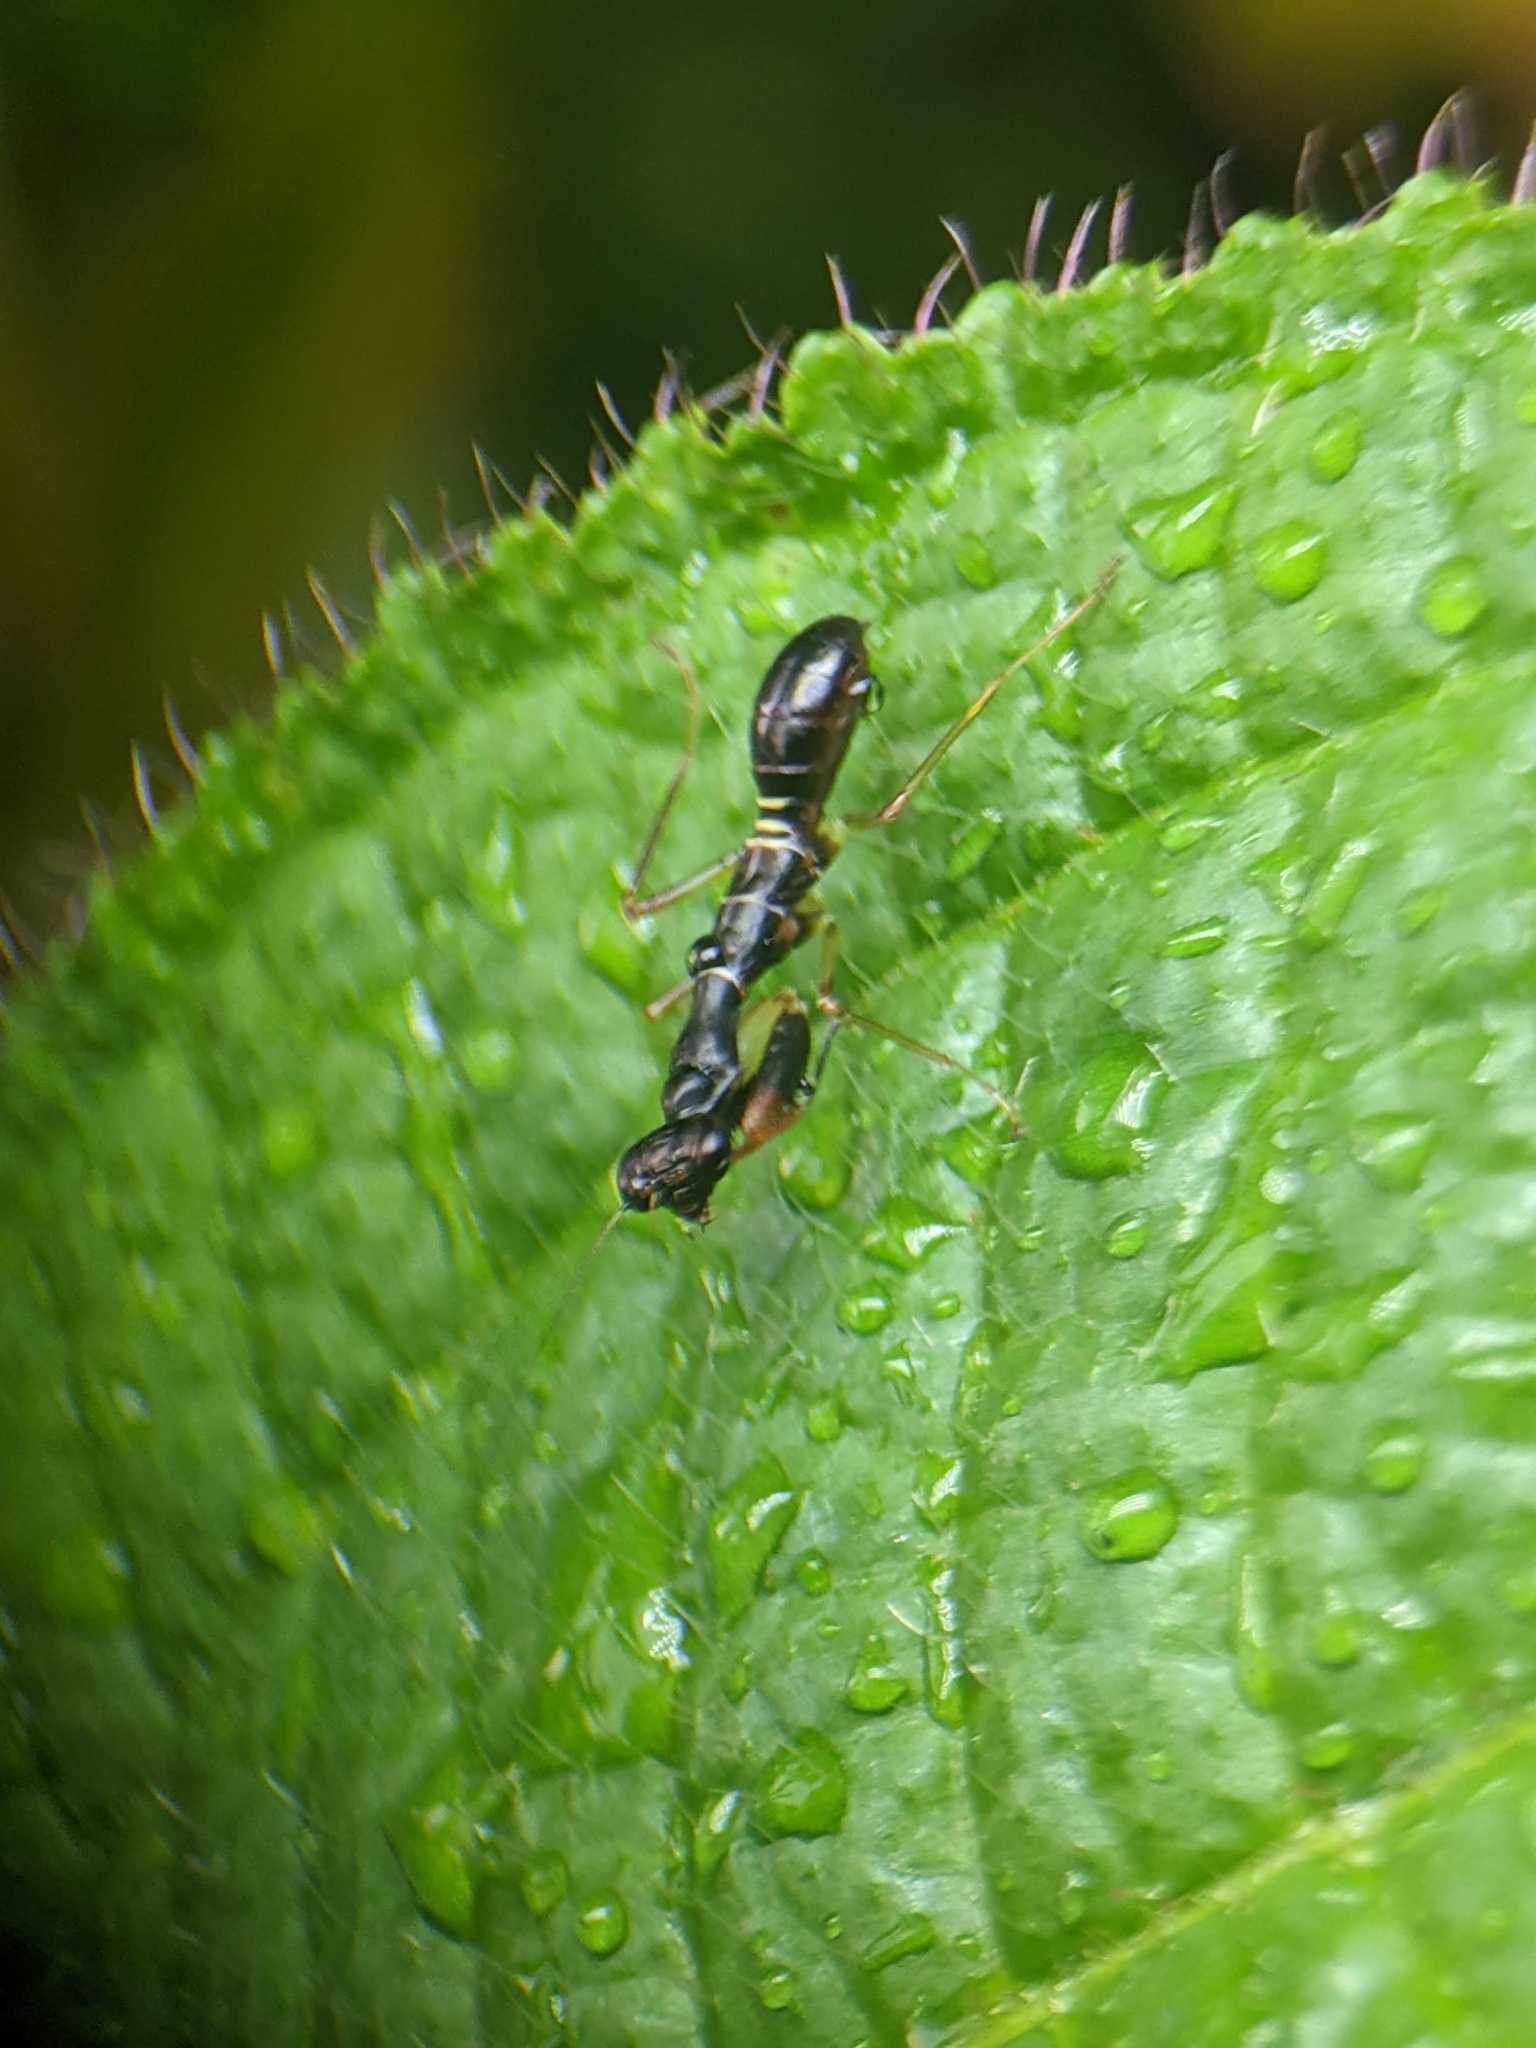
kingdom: Animalia
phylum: Arthropoda
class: Insecta
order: Mantodea
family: Hymenopodidae
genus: Odontomantis
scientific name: Odontomantis planiceps
